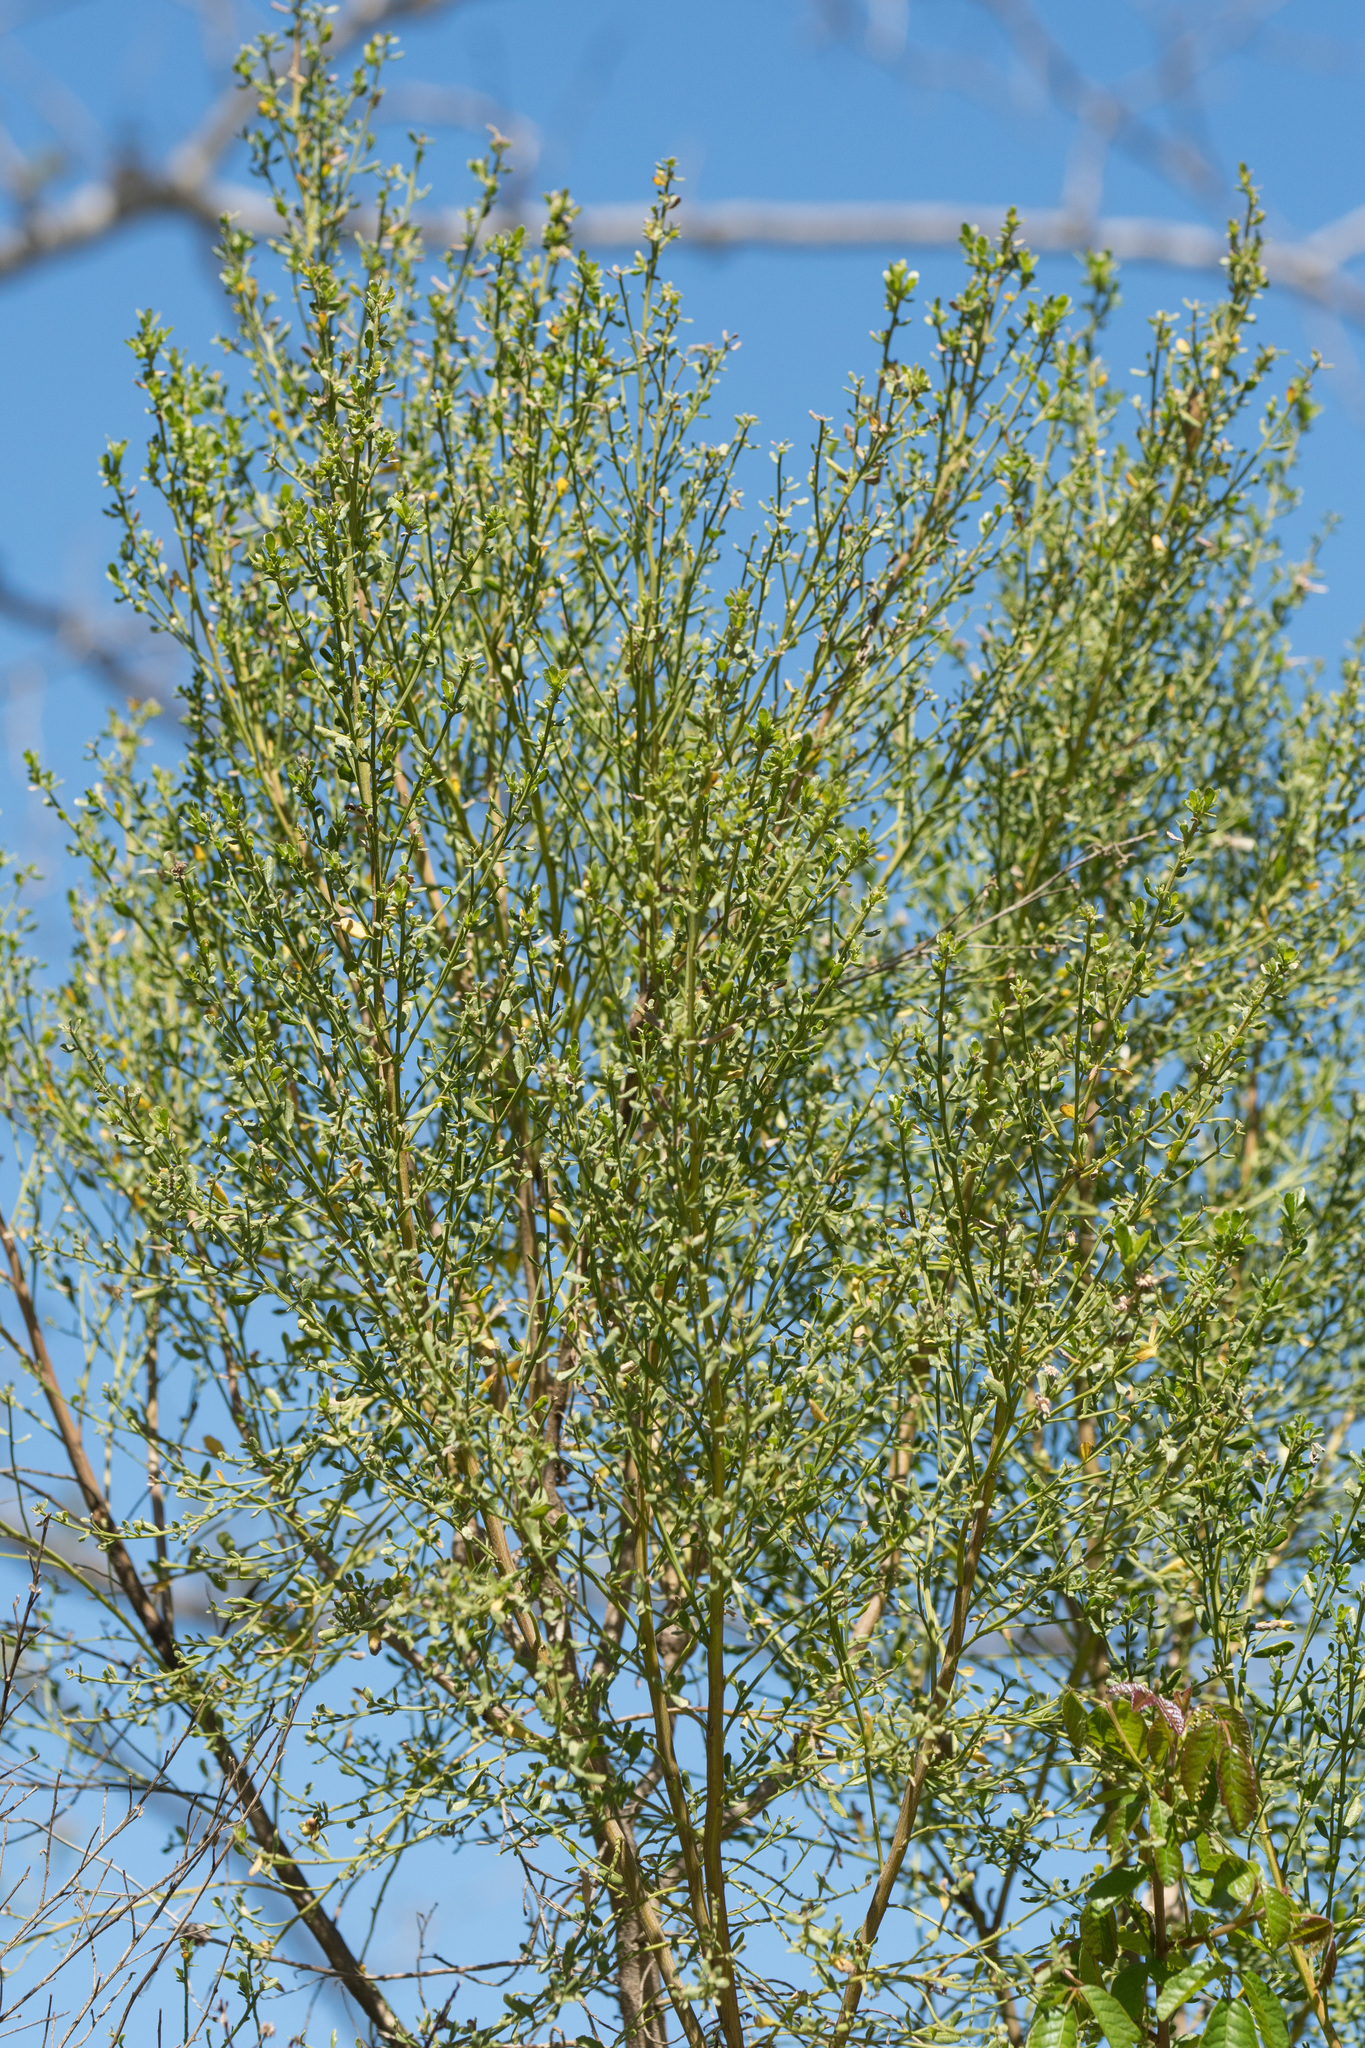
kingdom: Plantae
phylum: Tracheophyta
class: Magnoliopsida
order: Asterales
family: Asteraceae
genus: Baccharis
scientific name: Baccharis pilularis
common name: Coyotebrush
